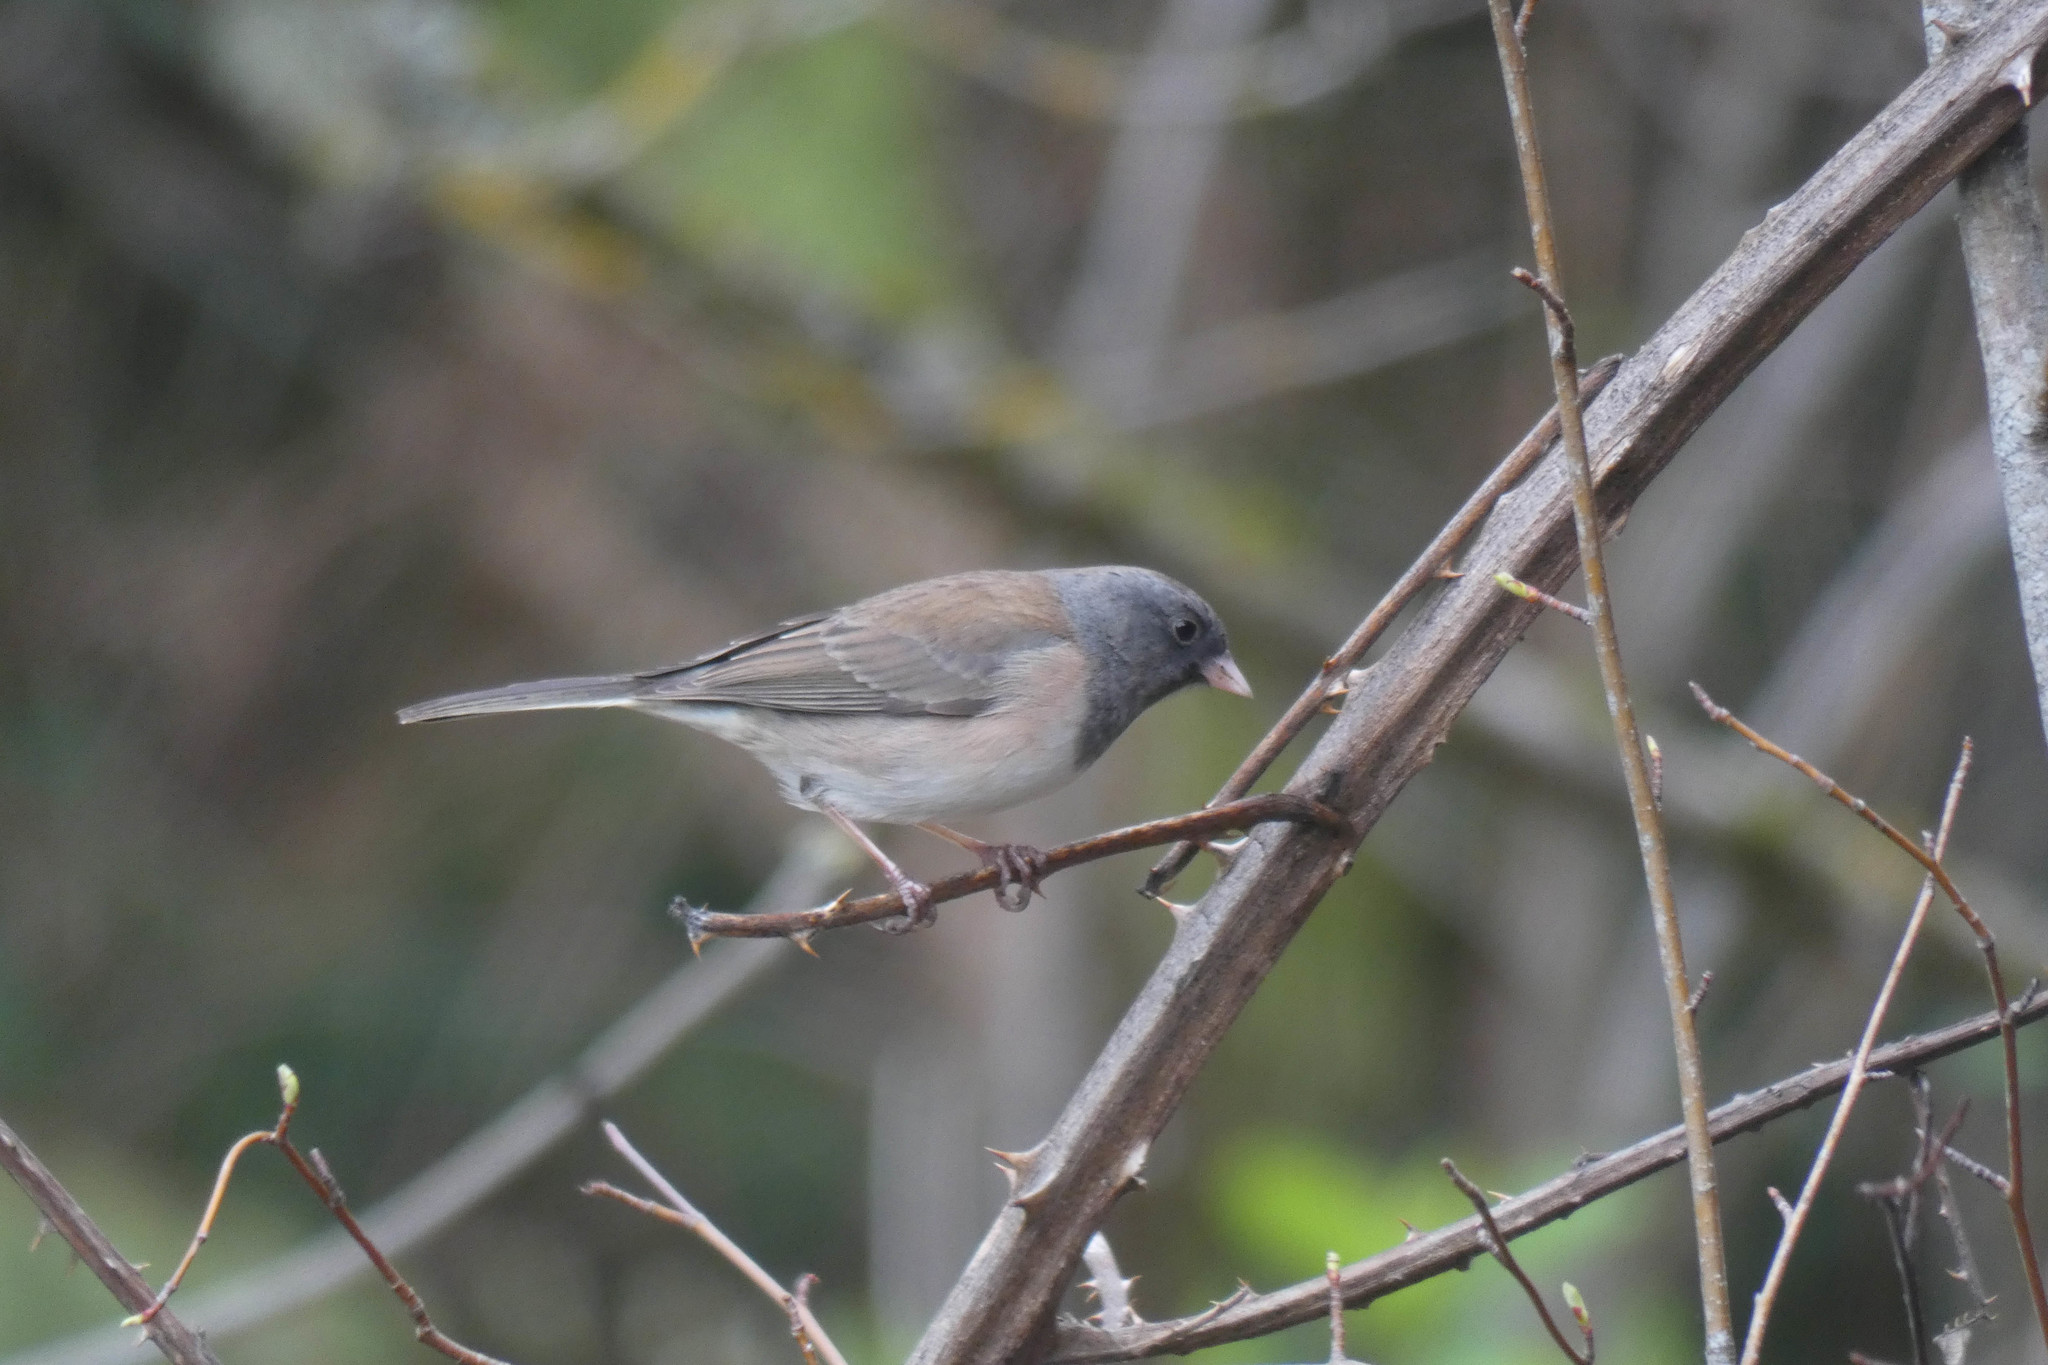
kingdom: Animalia
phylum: Chordata
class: Aves
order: Passeriformes
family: Passerellidae
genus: Junco
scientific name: Junco hyemalis
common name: Dark-eyed junco
